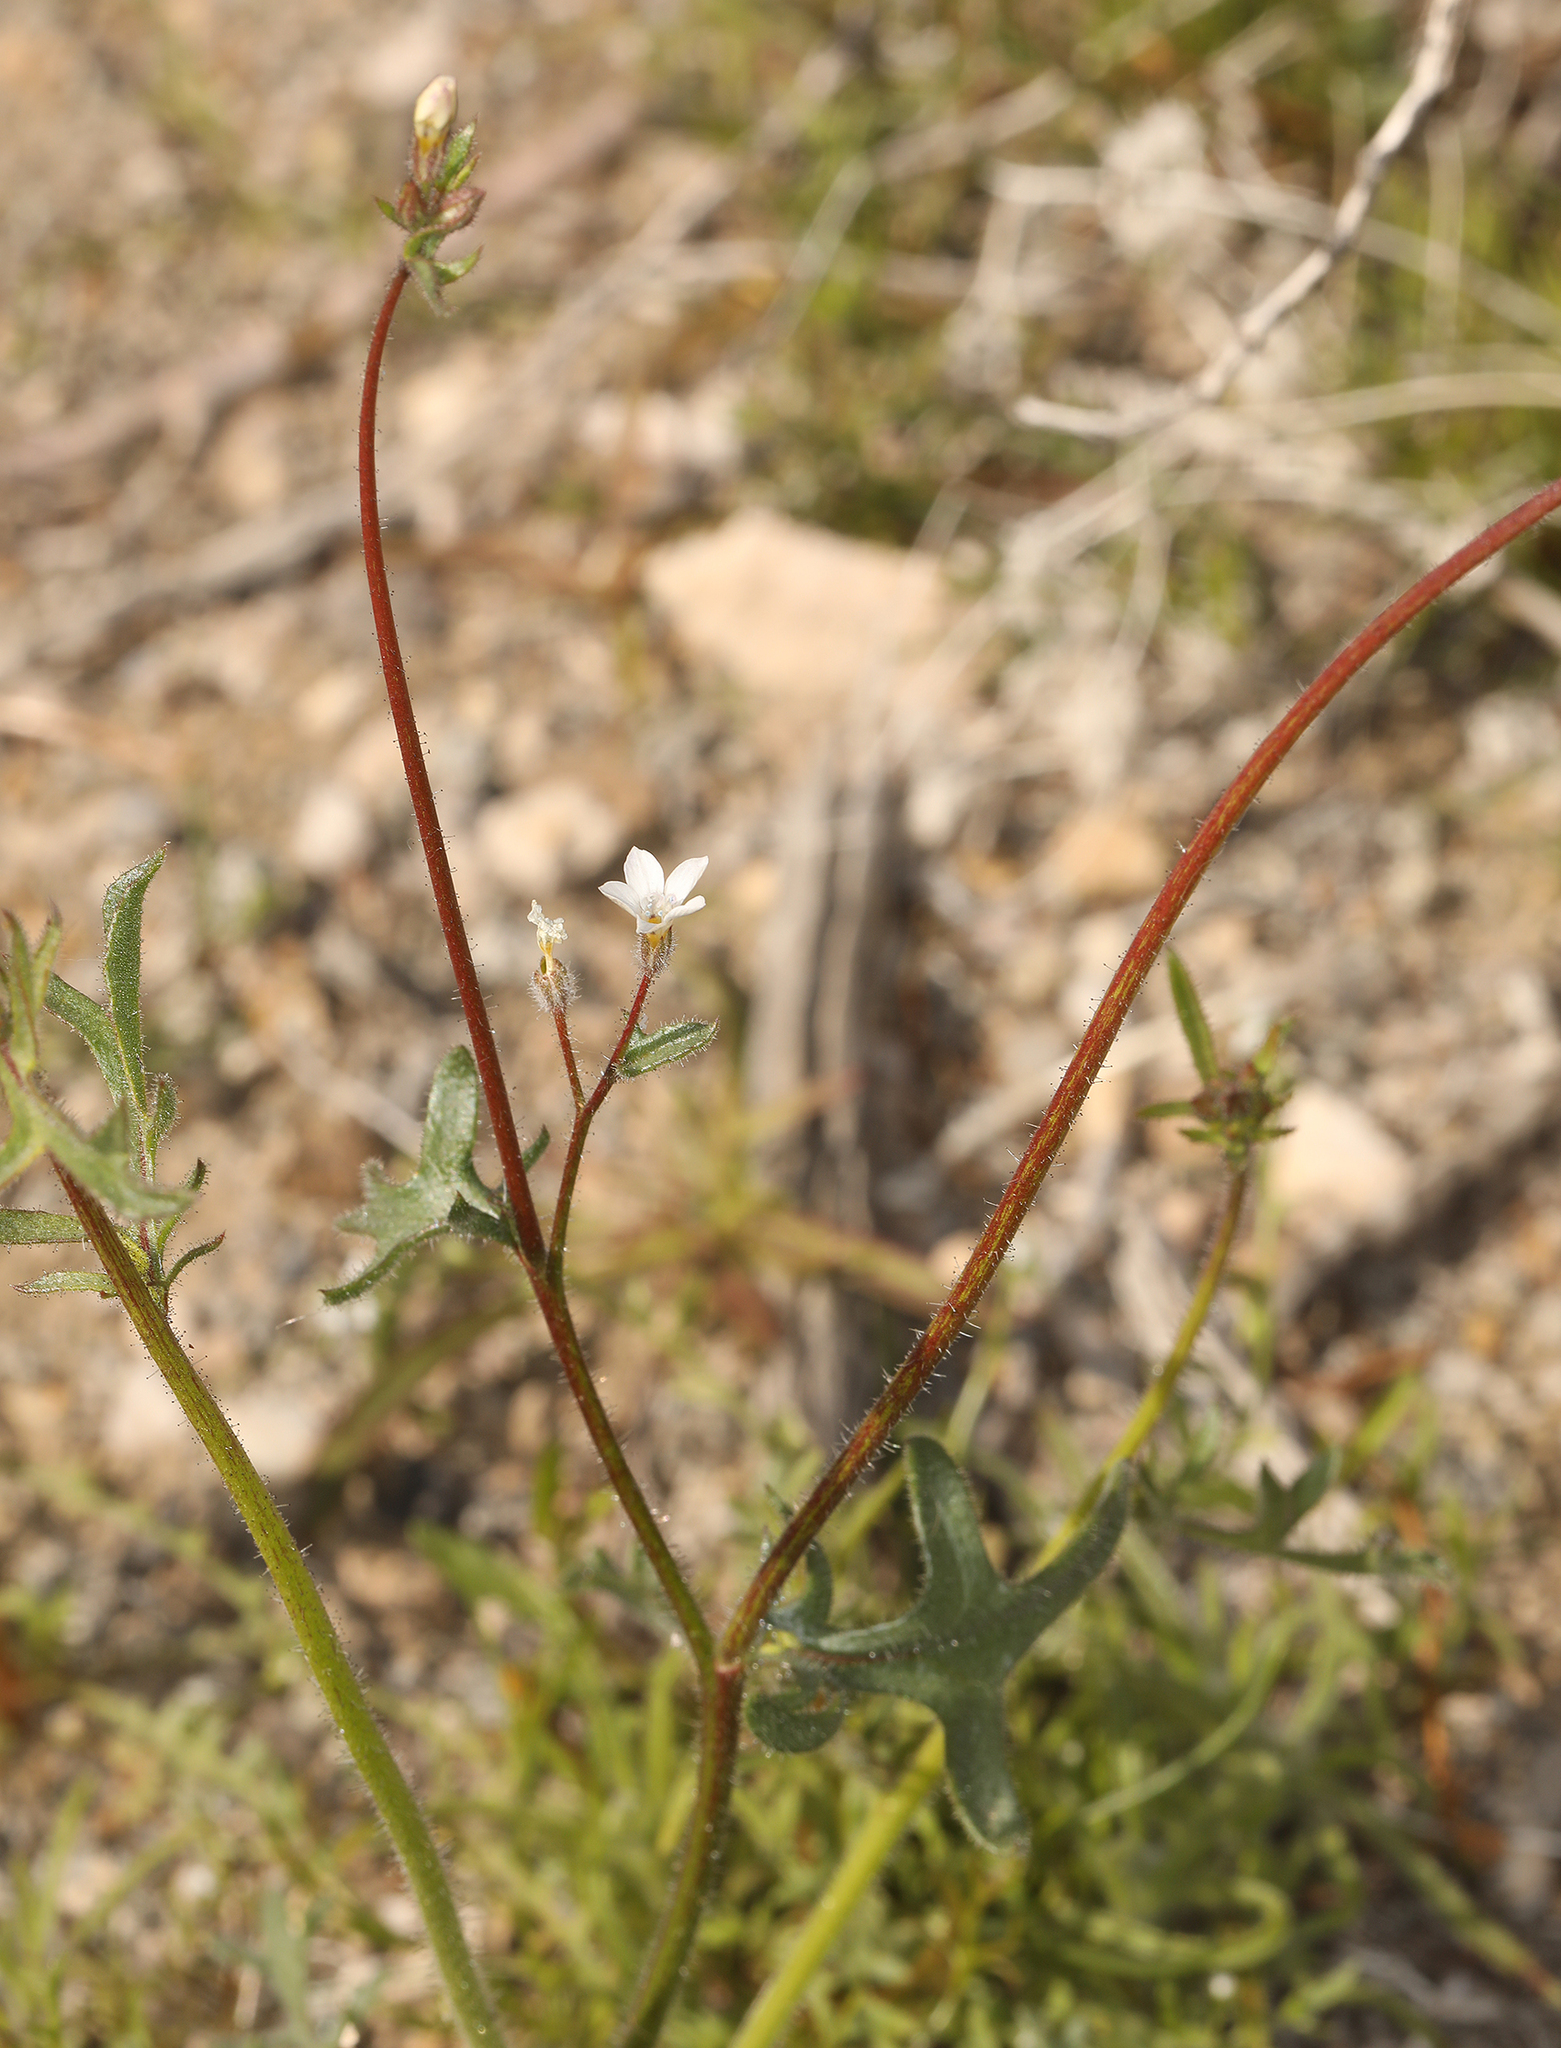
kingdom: Plantae
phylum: Tracheophyta
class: Magnoliopsida
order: Ericales
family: Polemoniaceae
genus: Gilia
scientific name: Gilia stellata
